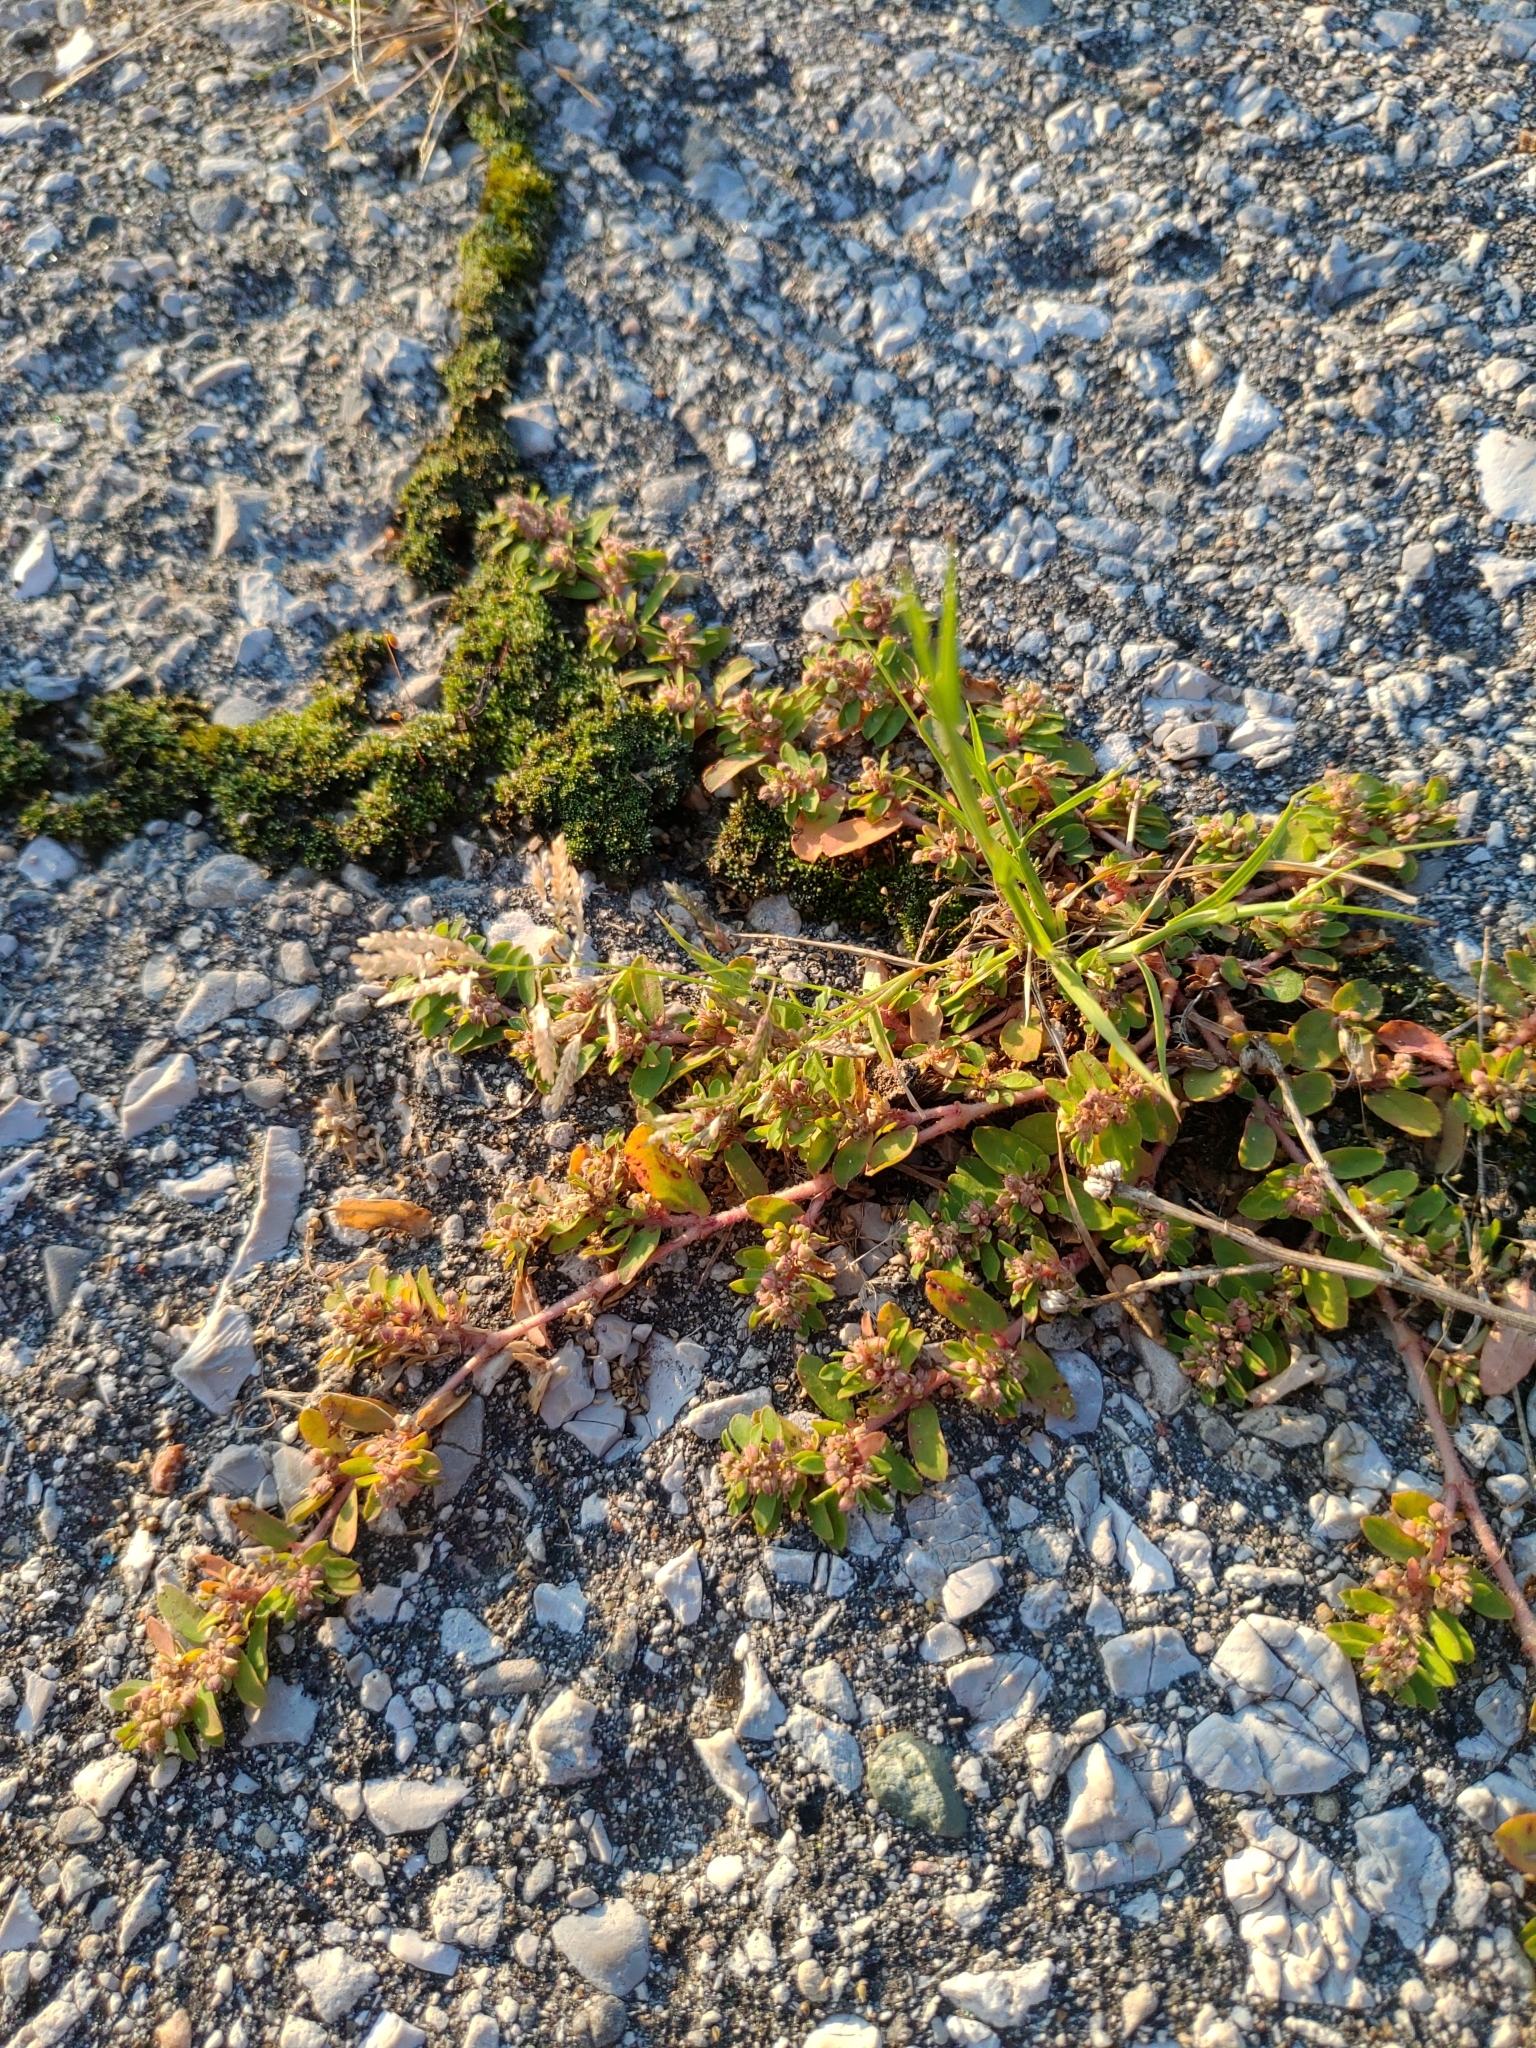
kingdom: Plantae
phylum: Tracheophyta
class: Magnoliopsida
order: Malpighiales
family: Euphorbiaceae
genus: Euphorbia
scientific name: Euphorbia maculata
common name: Spotted spurge
